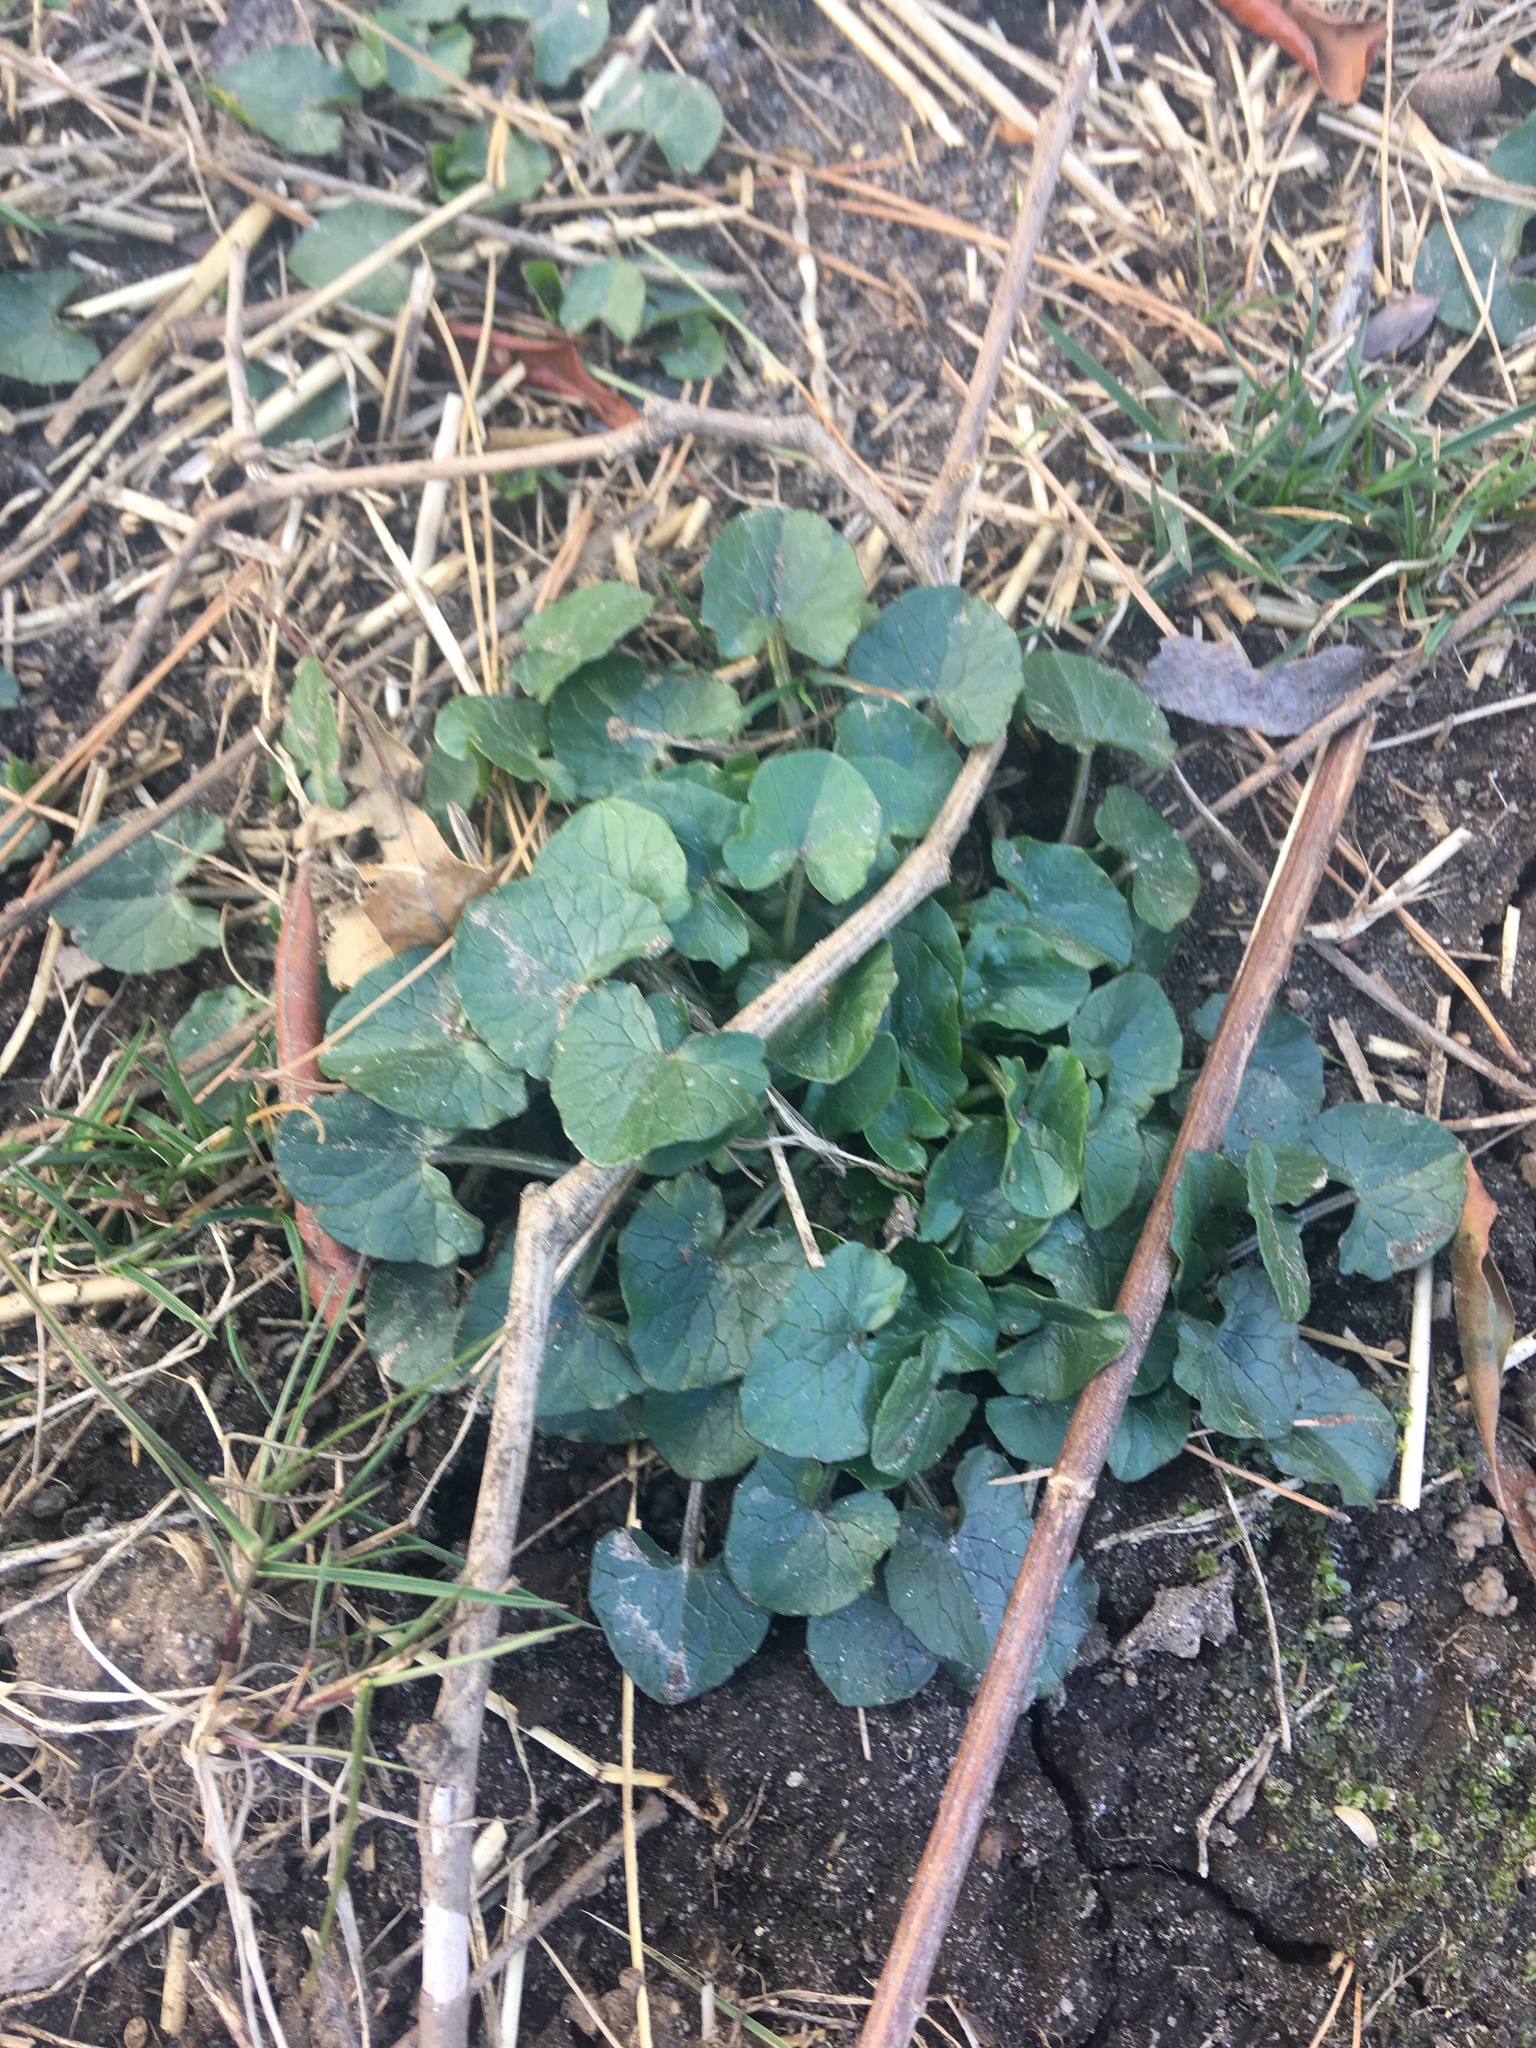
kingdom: Plantae
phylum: Tracheophyta
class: Magnoliopsida
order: Ranunculales
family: Ranunculaceae
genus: Ficaria
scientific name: Ficaria verna
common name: Lesser celandine
